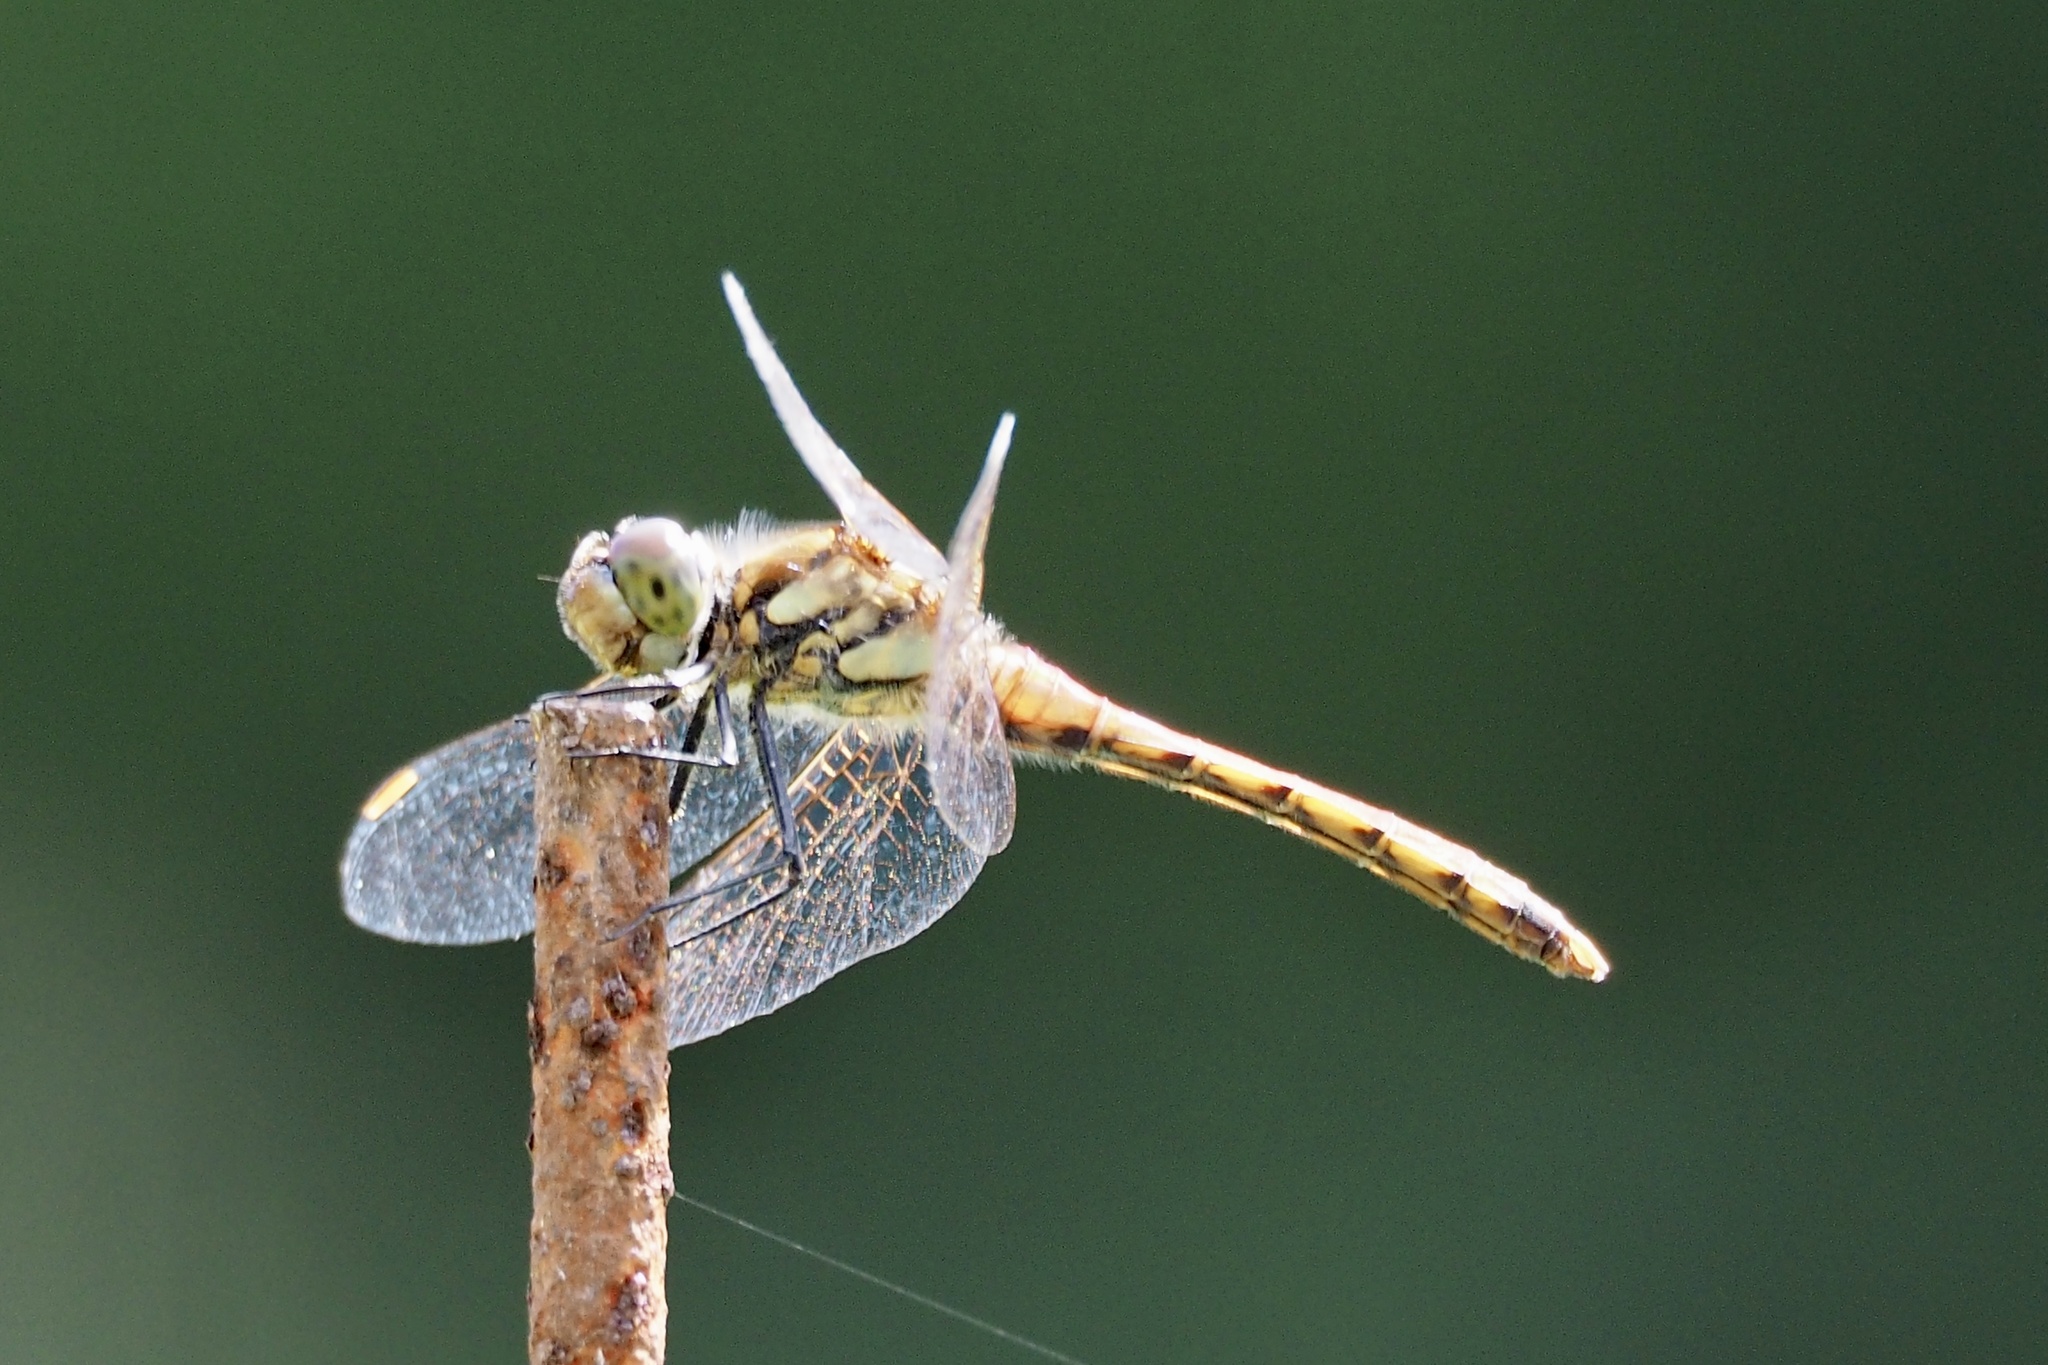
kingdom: Animalia
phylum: Arthropoda
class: Insecta
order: Odonata
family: Libellulidae
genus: Sympetrum
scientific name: Sympetrum frequens
